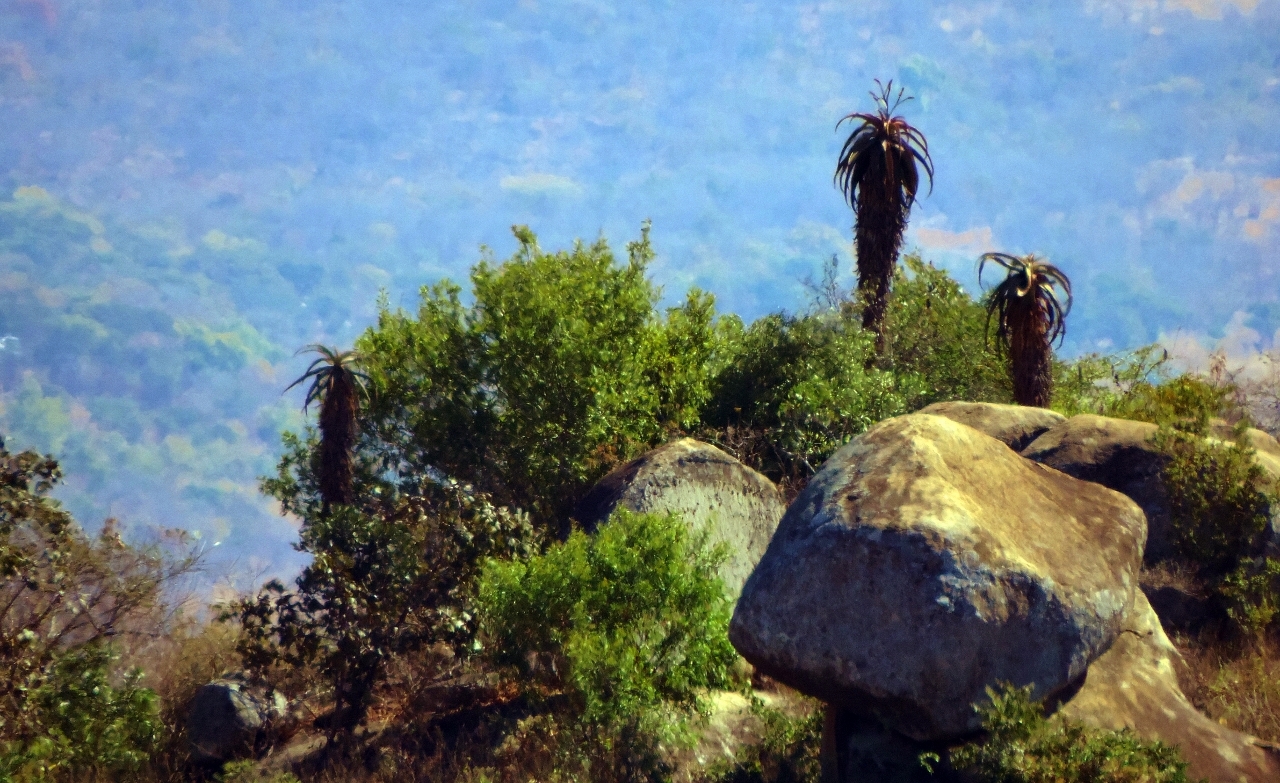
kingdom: Plantae
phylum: Tracheophyta
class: Liliopsida
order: Asparagales
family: Asphodelaceae
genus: Aloe
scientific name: Aloe excelsa
